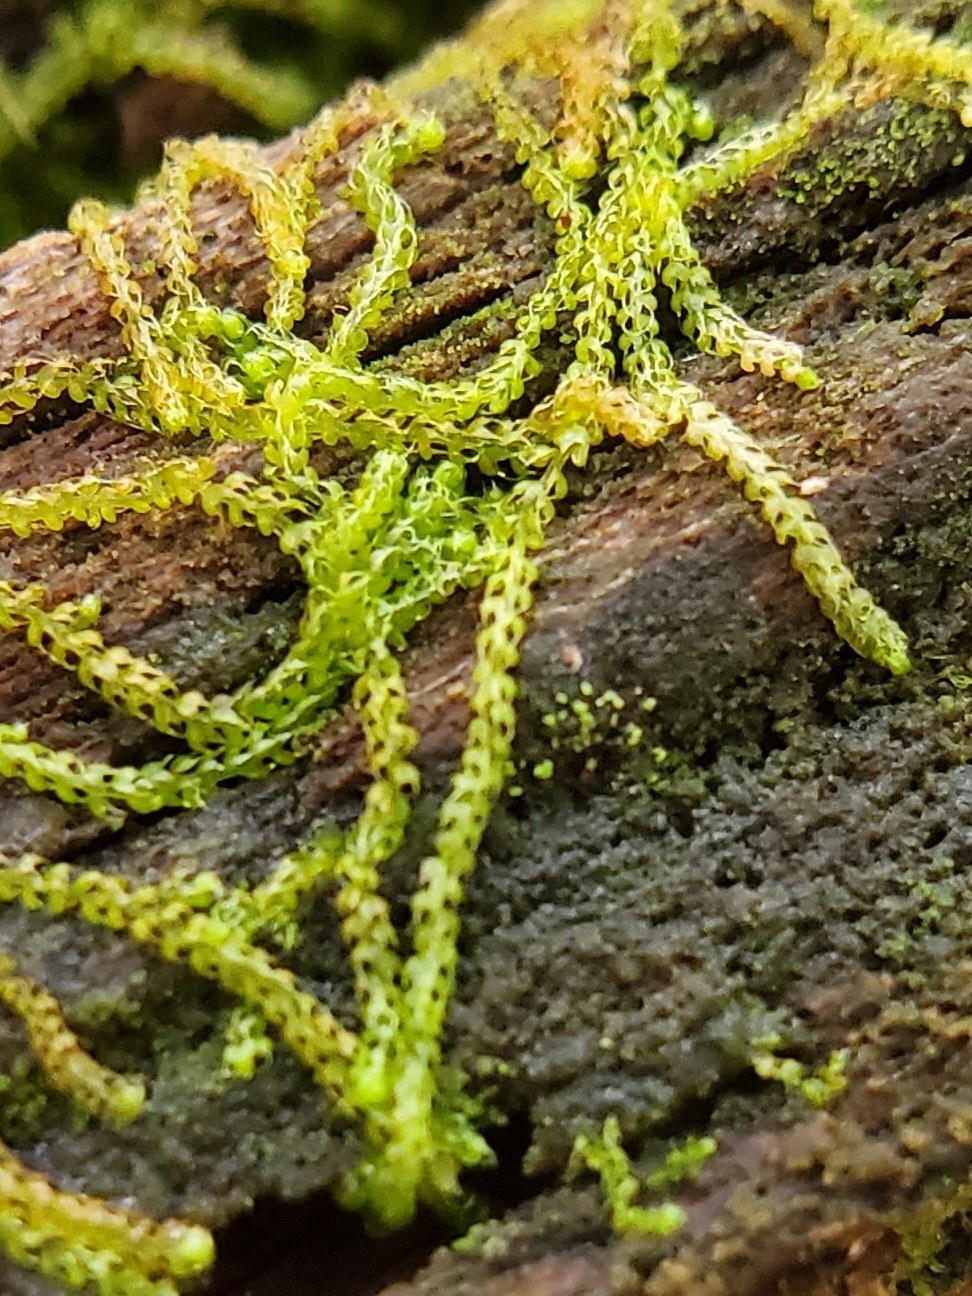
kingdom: Plantae
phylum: Marchantiophyta
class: Jungermanniopsida
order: Jungermanniales
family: Cephaloziaceae
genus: Nowellia
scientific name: Nowellia curvifolia
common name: Wood rustwort
